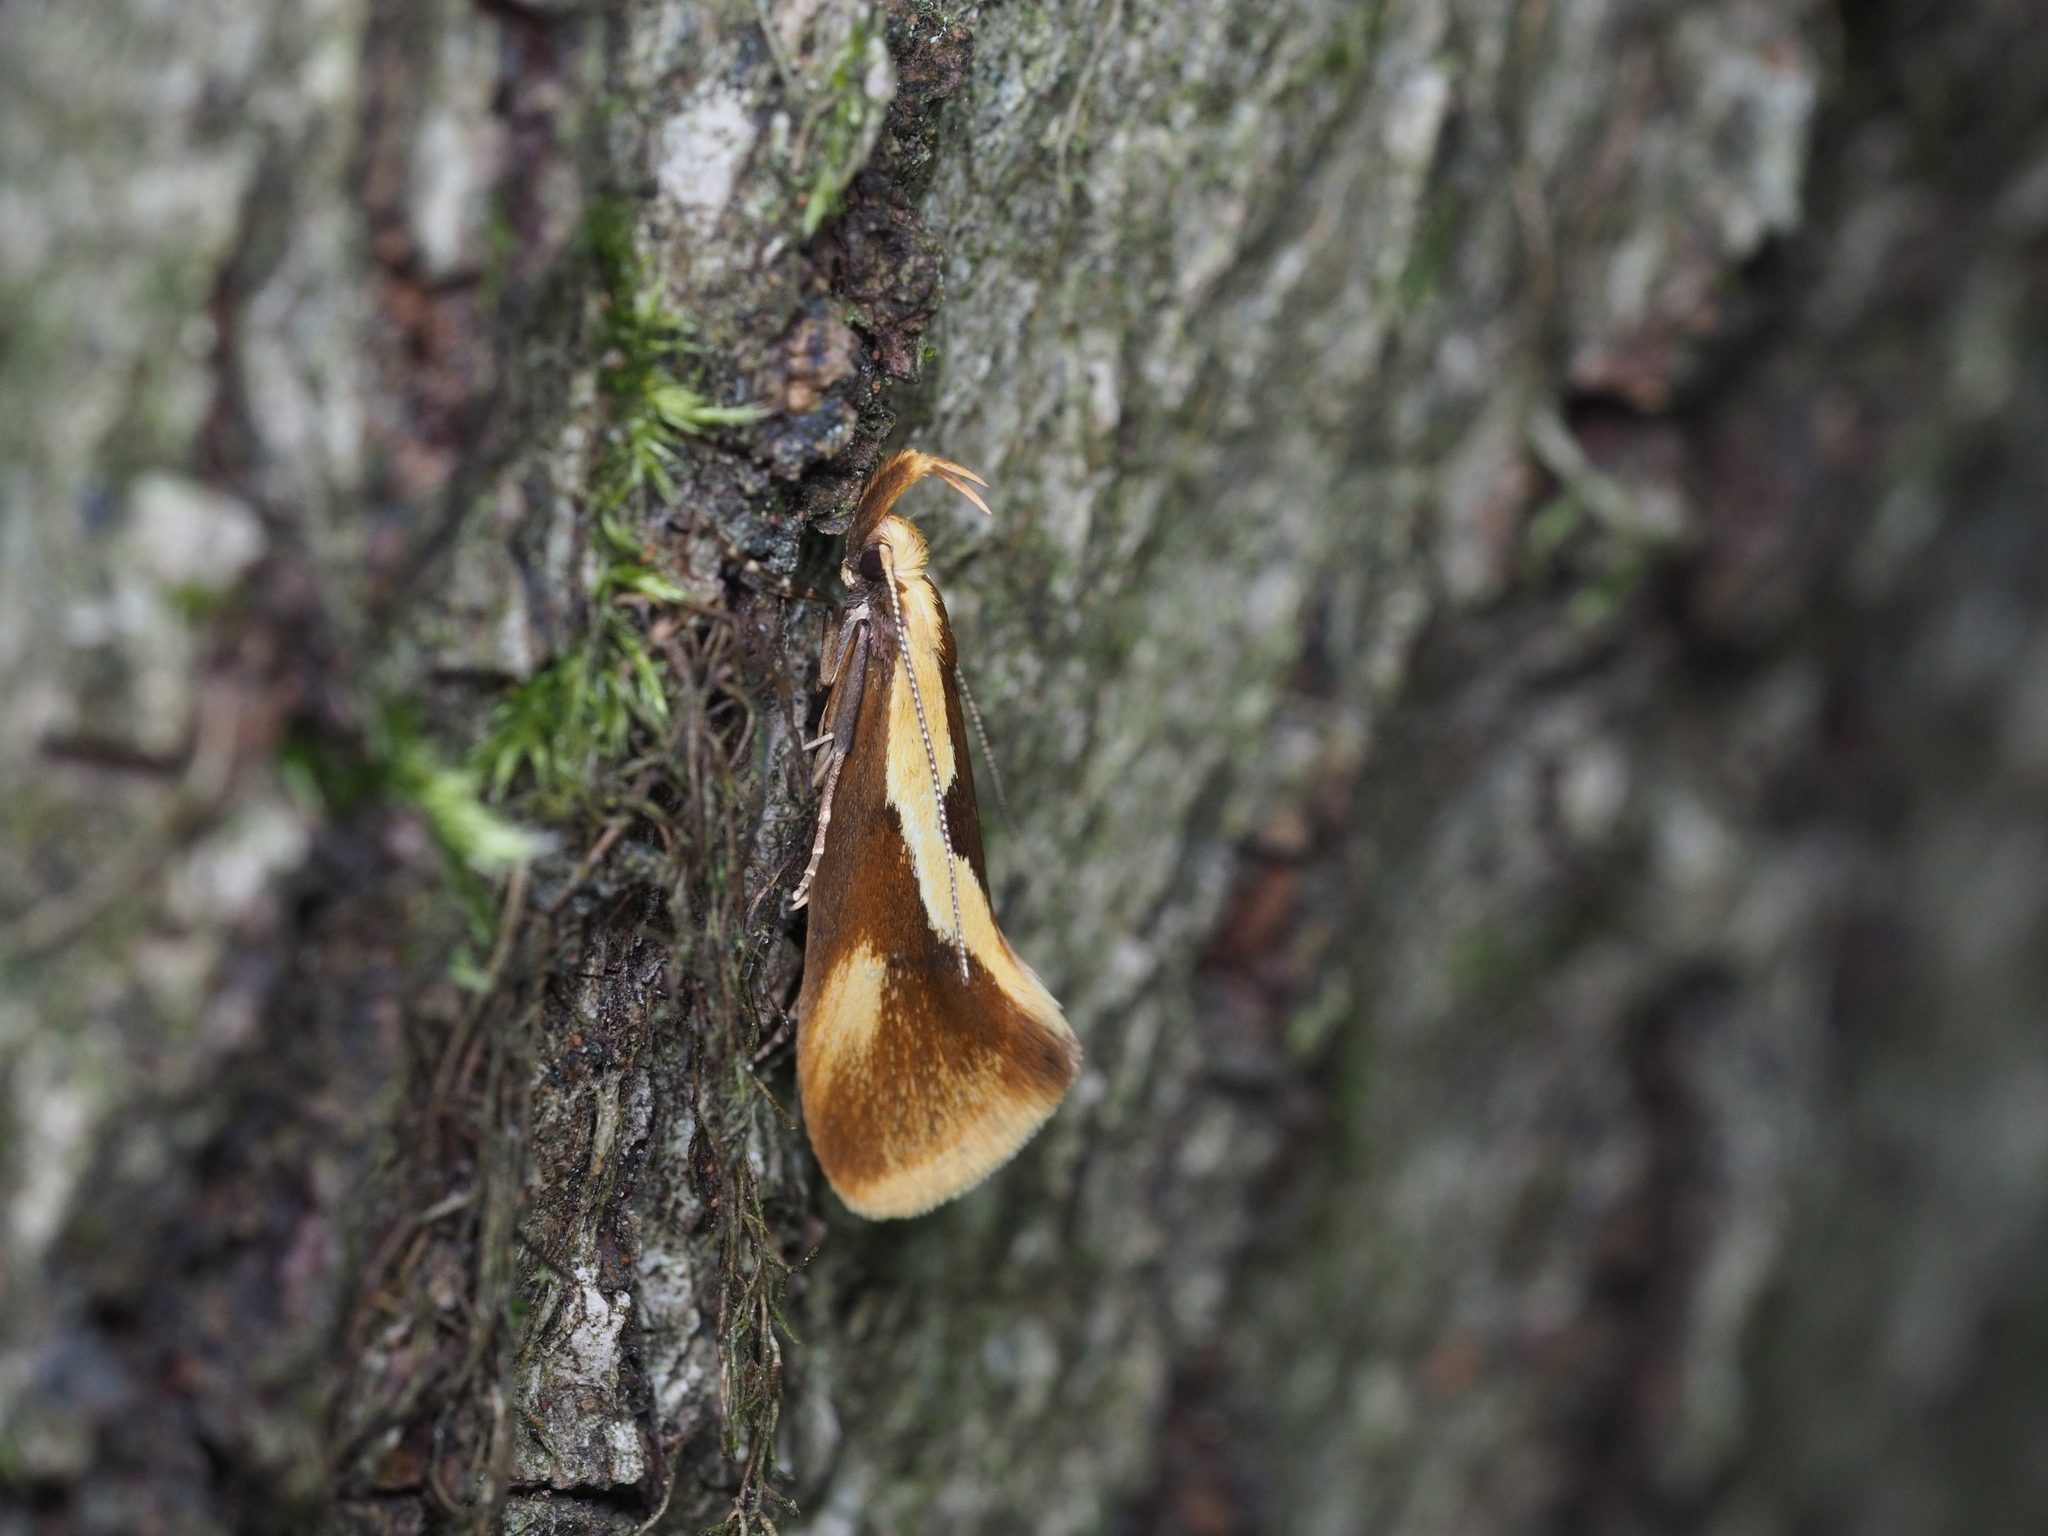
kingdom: Animalia
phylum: Arthropoda
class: Insecta
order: Lepidoptera
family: Oecophoridae
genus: Harpella
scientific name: Harpella forficella
